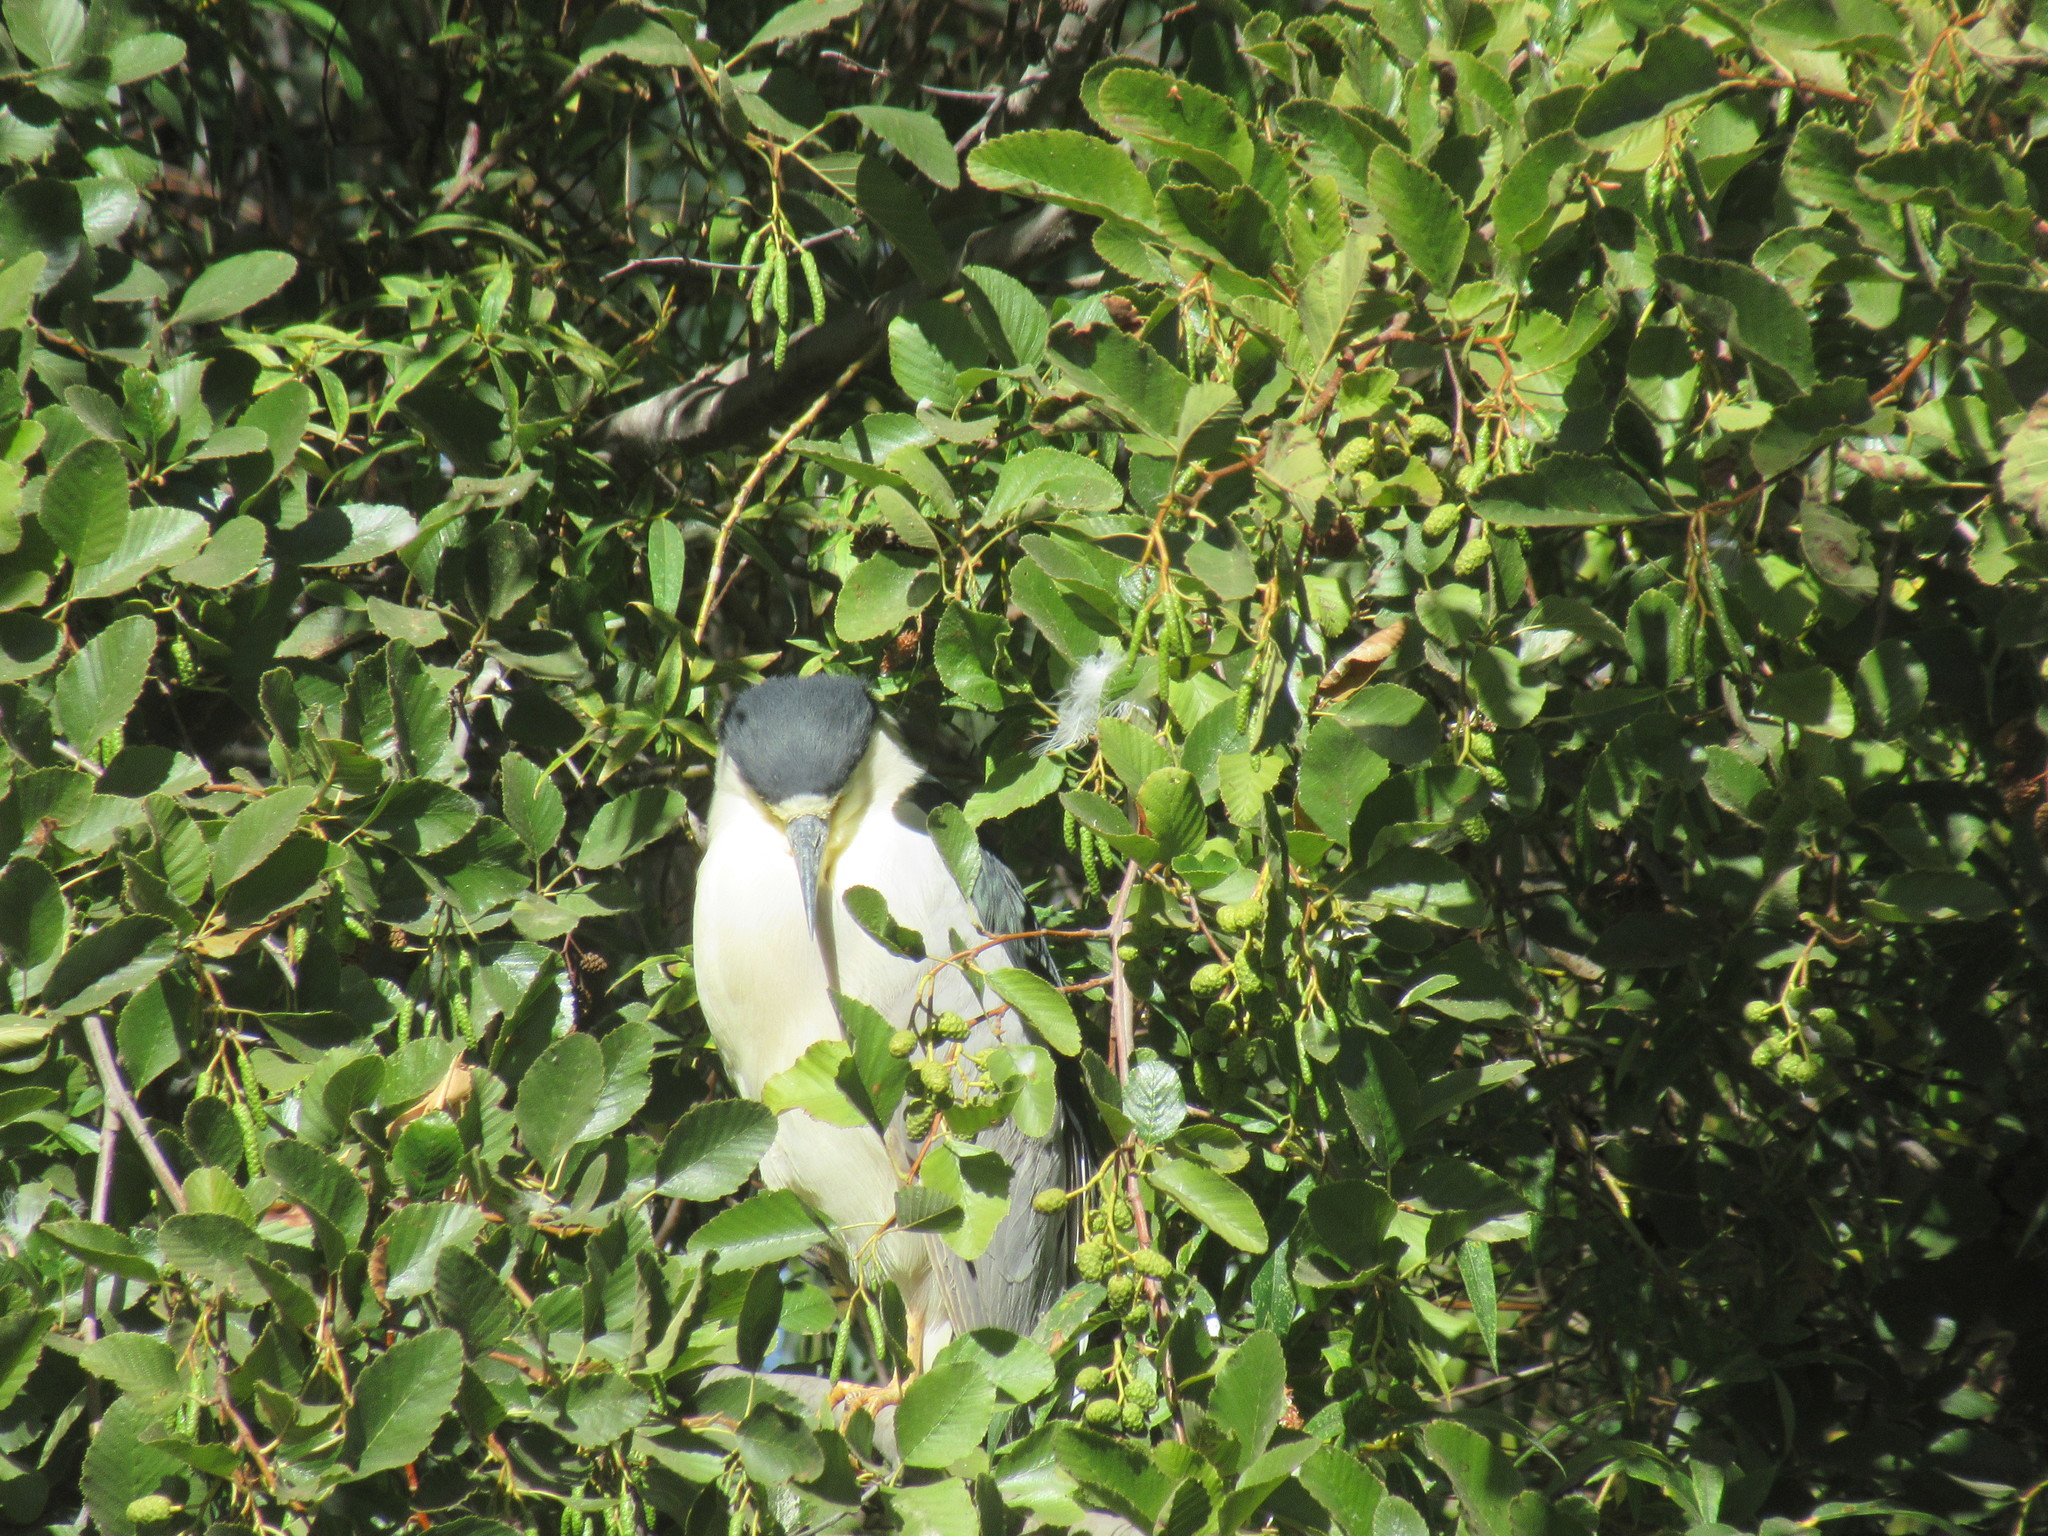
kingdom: Animalia
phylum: Chordata
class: Aves
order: Pelecaniformes
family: Ardeidae
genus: Nycticorax
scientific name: Nycticorax nycticorax
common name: Black-crowned night heron
